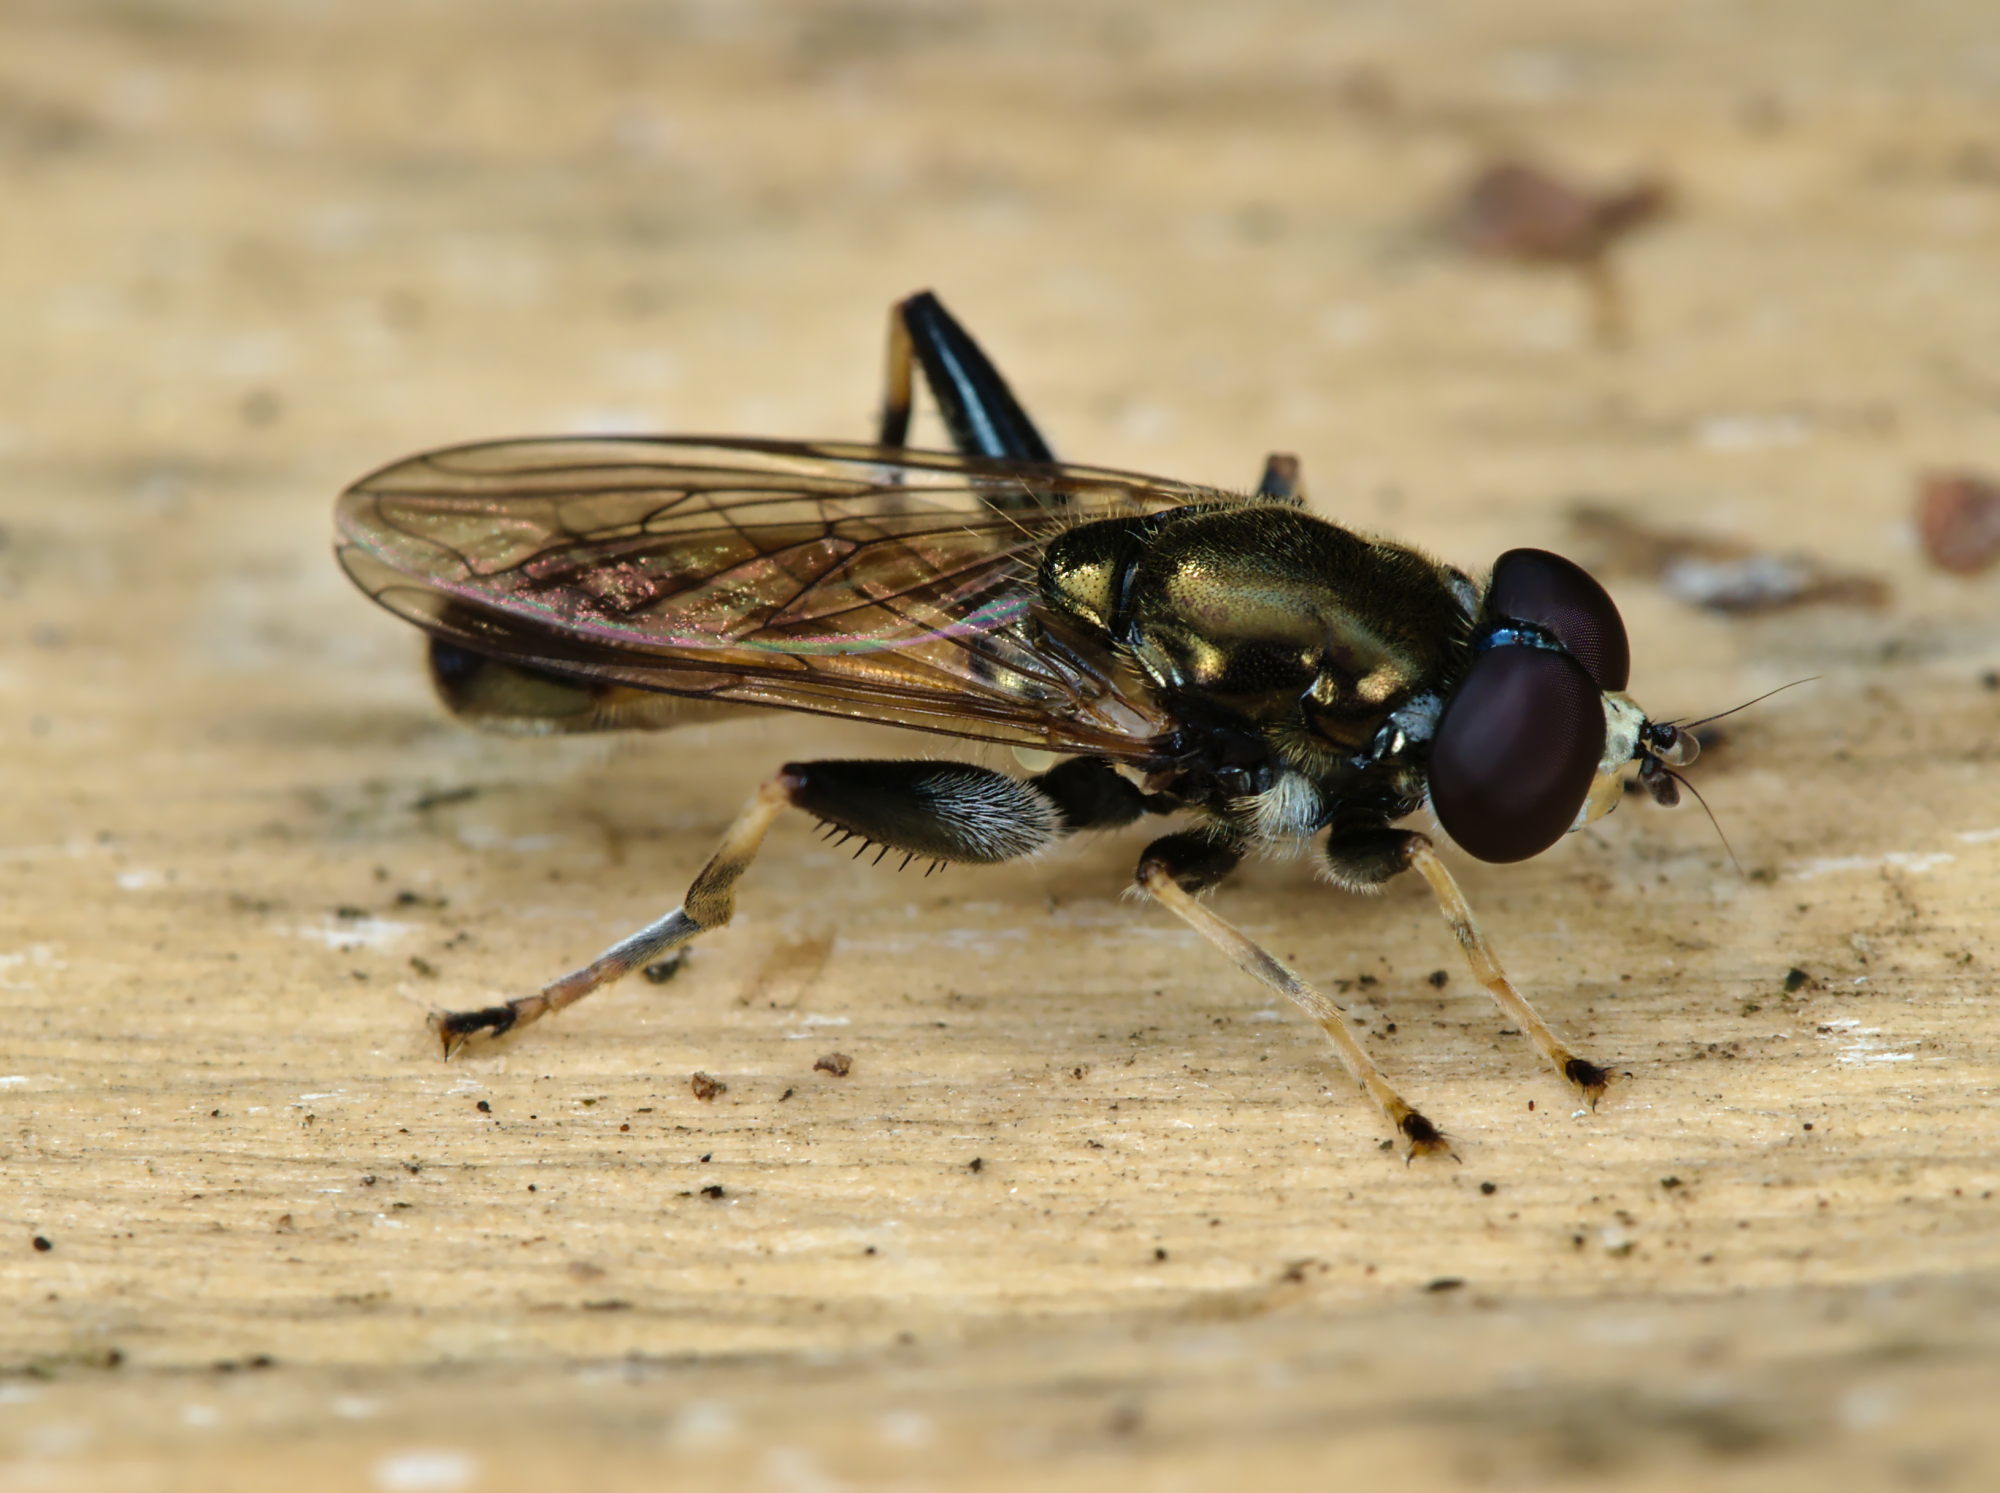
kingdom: Animalia
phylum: Arthropoda
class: Insecta
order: Diptera
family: Syrphidae
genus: Xylota
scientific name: Xylota segnis
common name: Brown-toed forest fly
